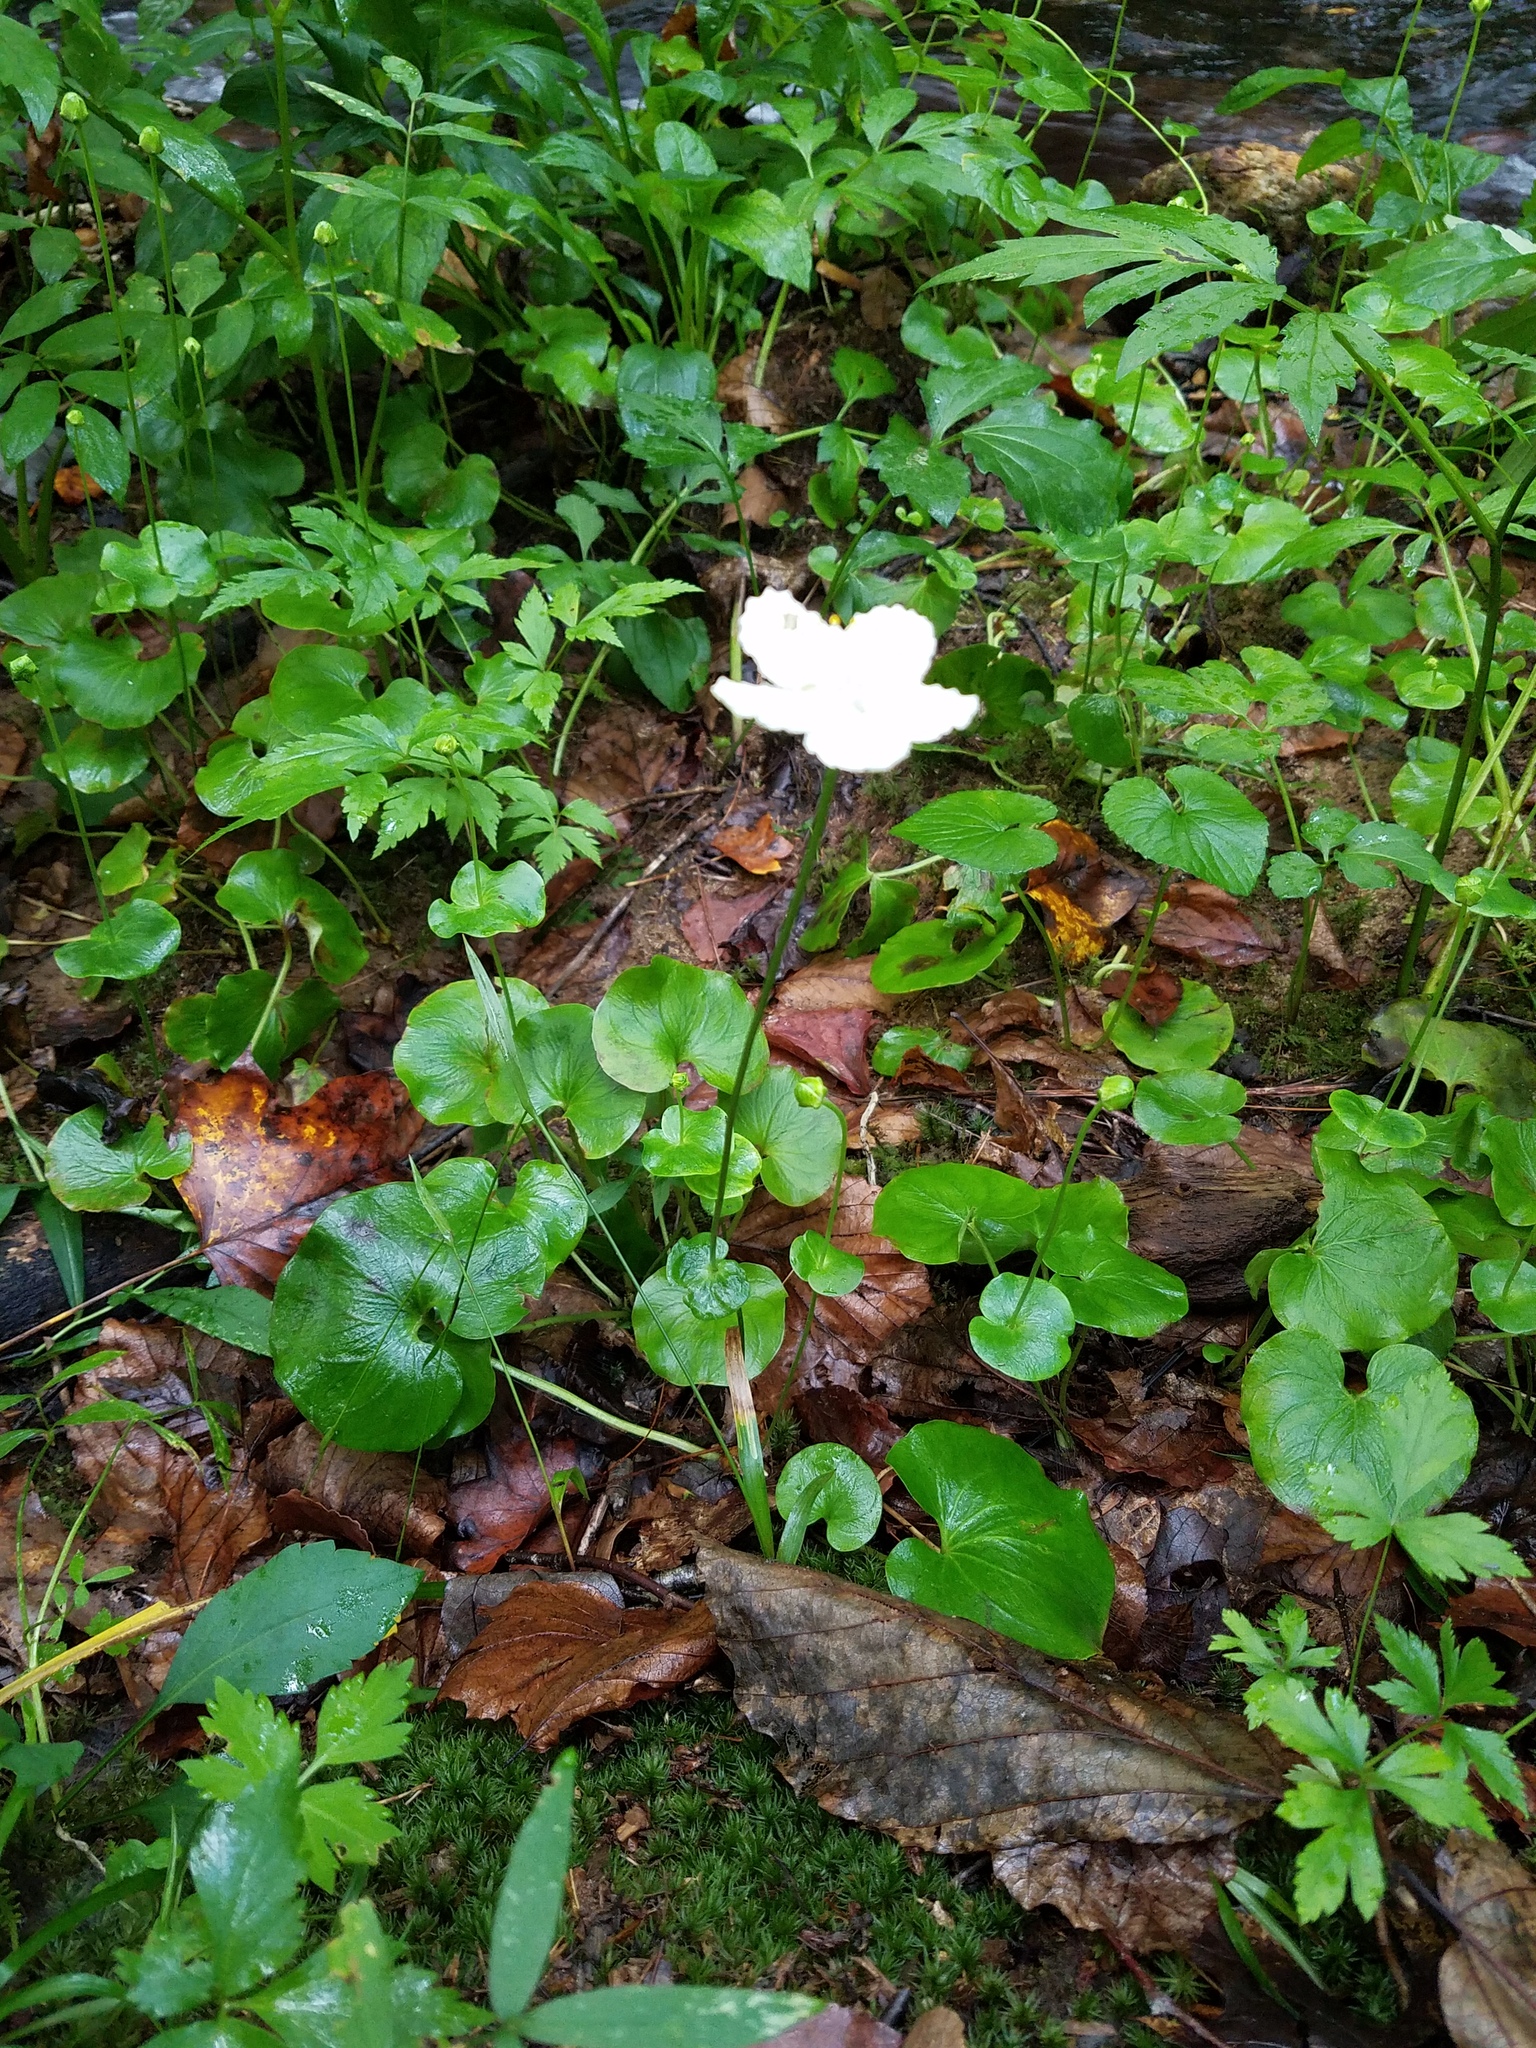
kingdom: Plantae
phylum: Tracheophyta
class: Magnoliopsida
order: Celastrales
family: Parnassiaceae
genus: Parnassia
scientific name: Parnassia asarifolia
